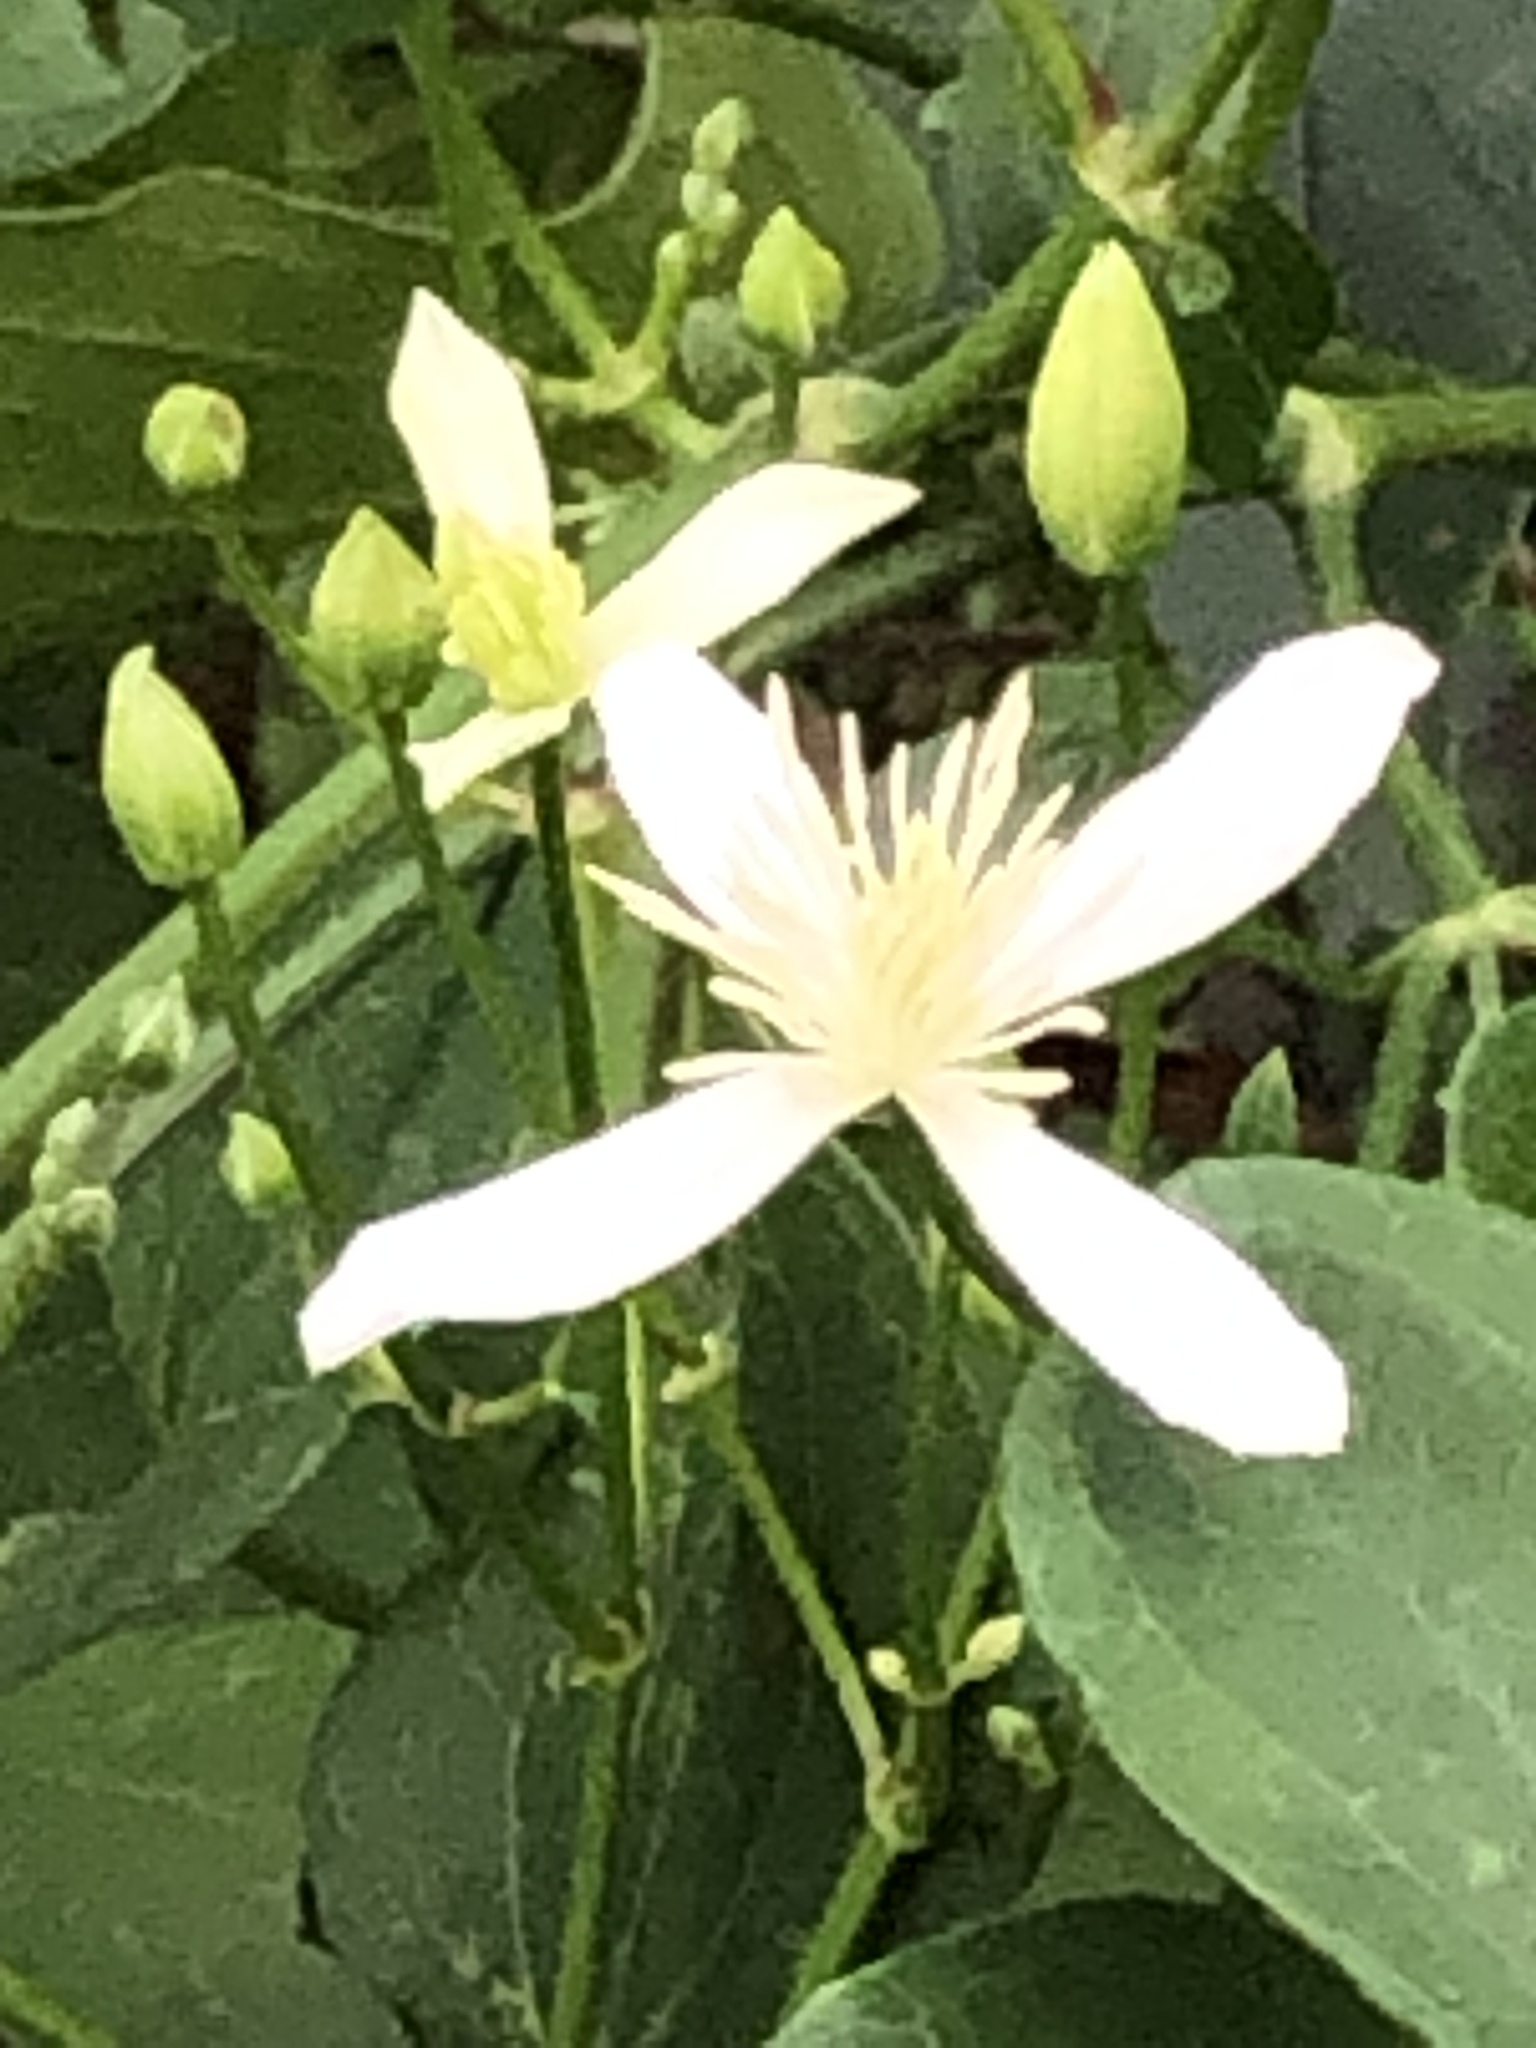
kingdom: Plantae
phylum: Tracheophyta
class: Magnoliopsida
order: Ranunculales
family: Ranunculaceae
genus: Clematis
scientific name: Clematis terniflora
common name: Sweet autumn clematis
